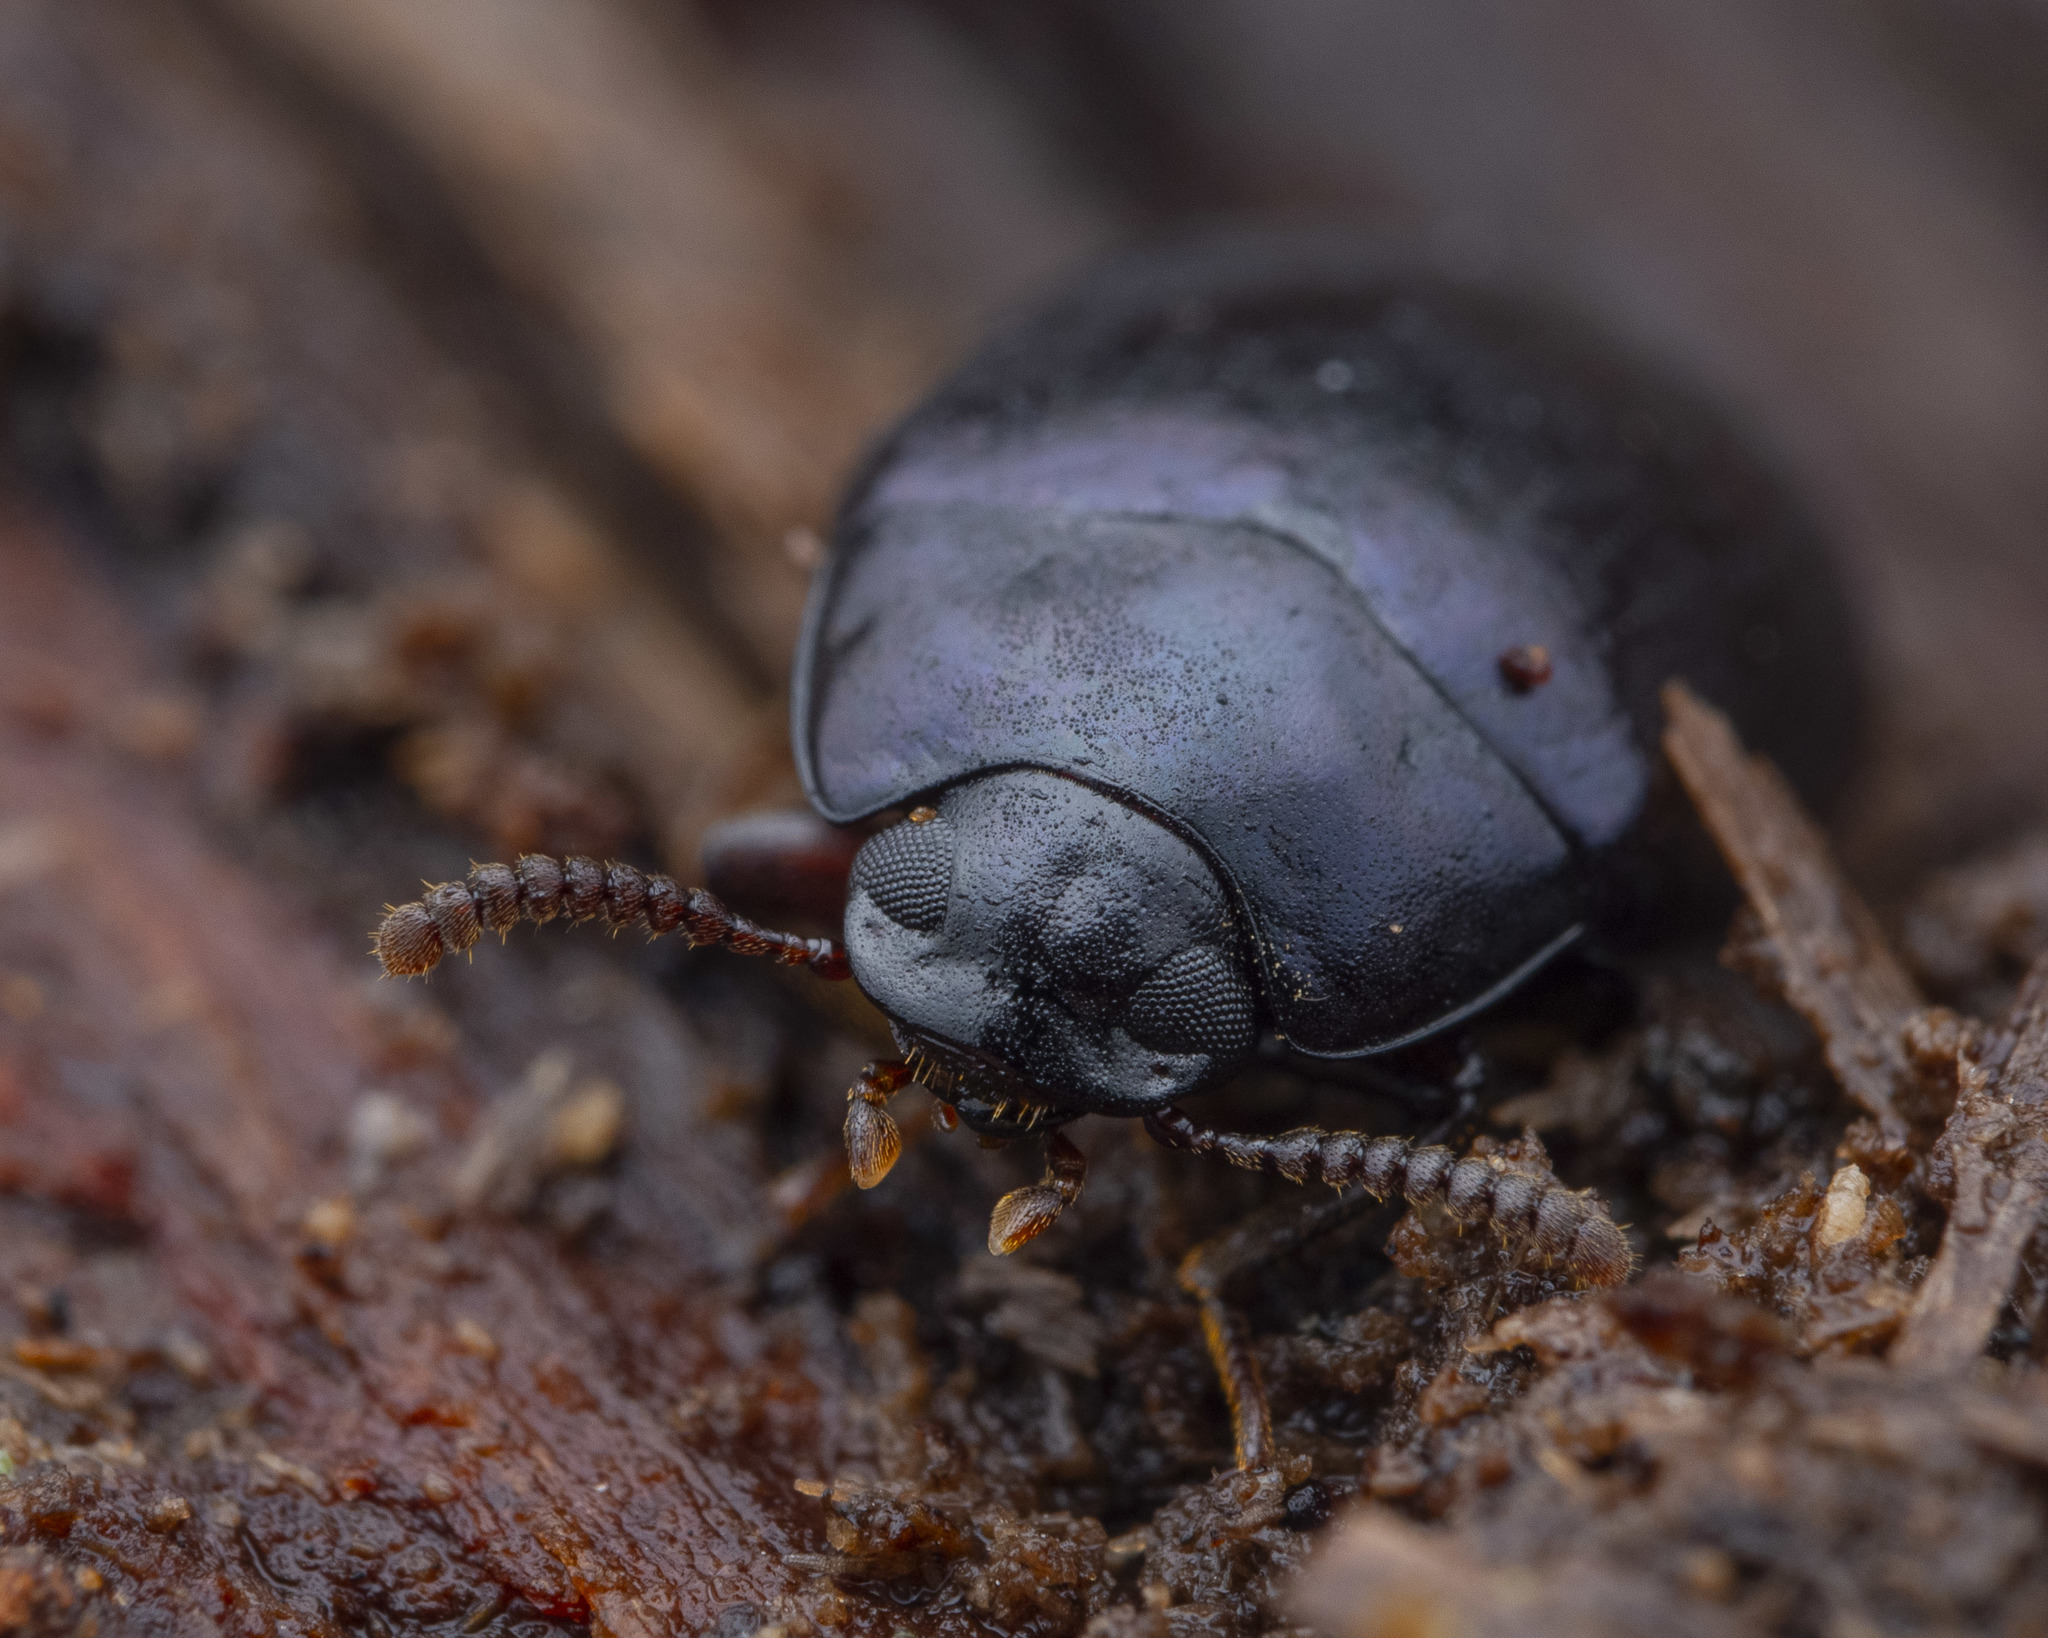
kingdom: Animalia
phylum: Arthropoda
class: Insecta
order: Coleoptera
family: Tenebrionidae
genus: Platydema
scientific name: Platydema violaceum
